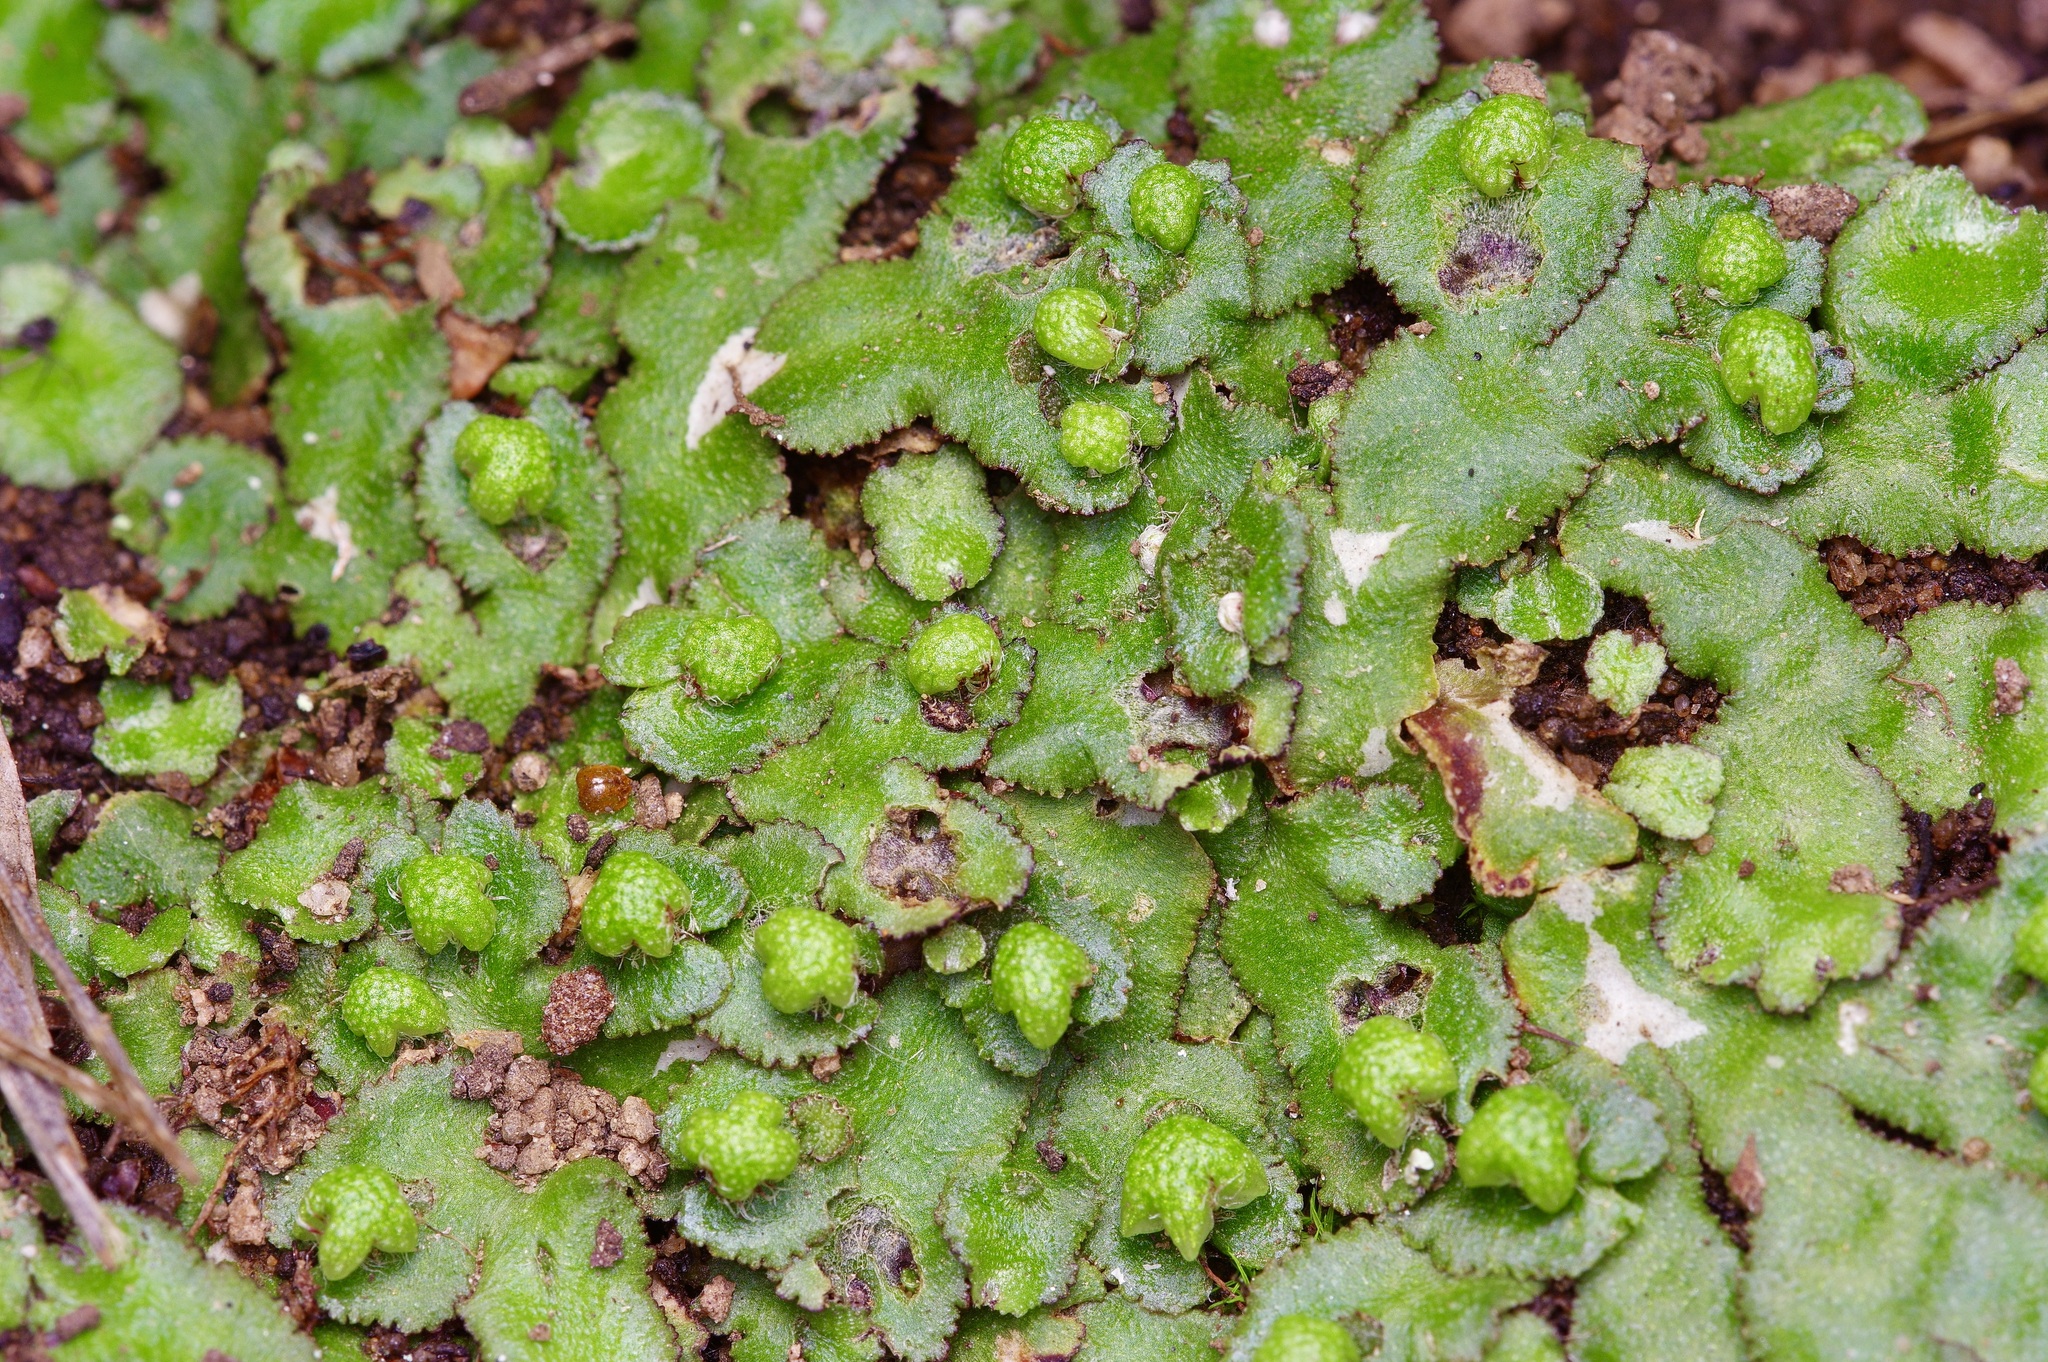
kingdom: Plantae
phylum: Marchantiophyta
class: Marchantiopsida
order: Marchantiales
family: Aytoniaceae
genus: Reboulia
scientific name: Reboulia hemisphaerica
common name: Purple-margined liverwort
